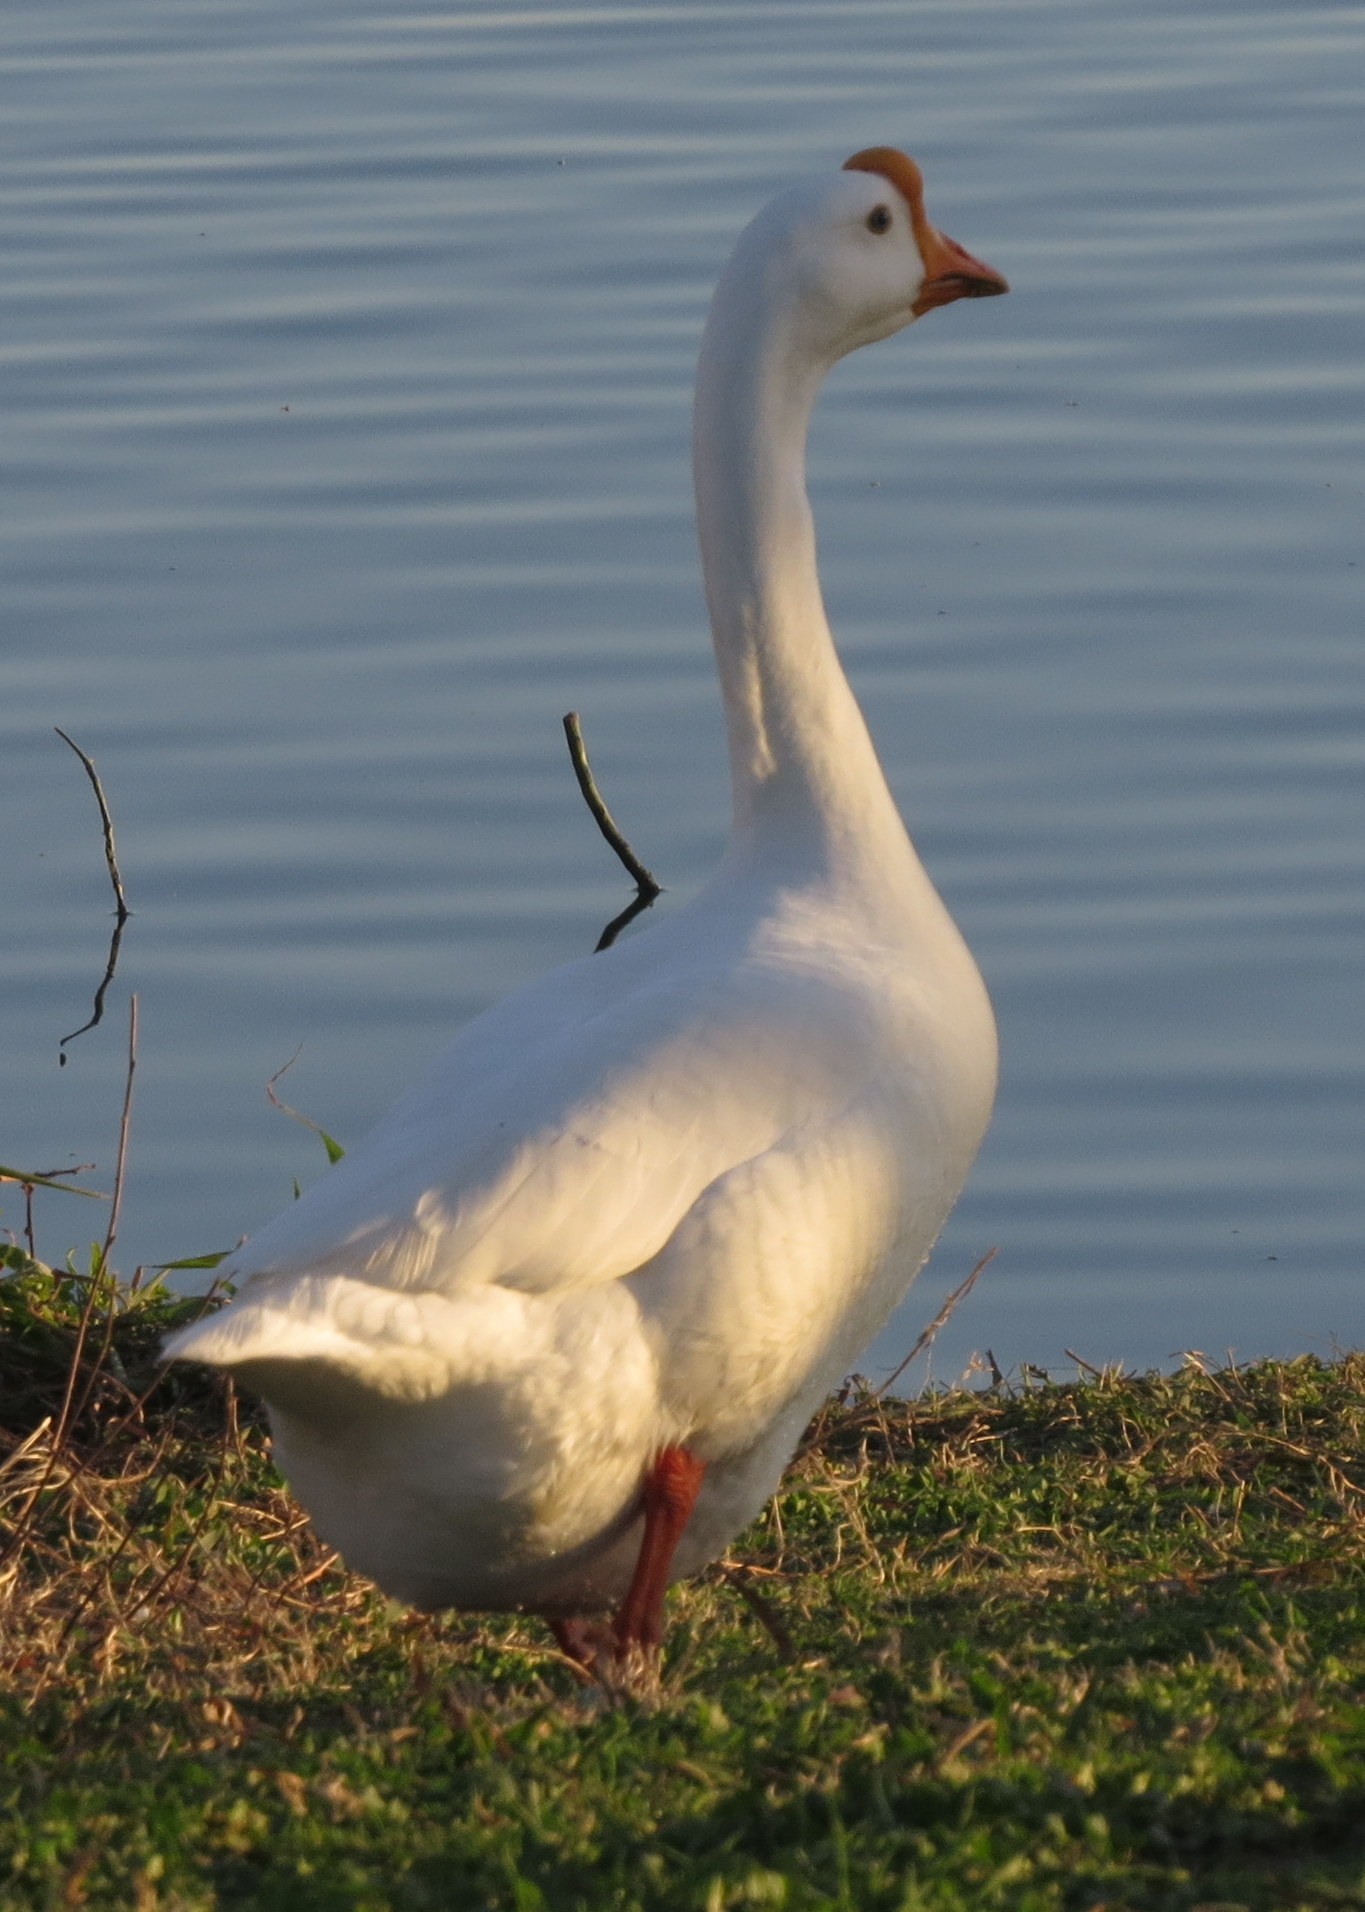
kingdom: Animalia
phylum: Chordata
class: Aves
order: Anseriformes
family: Anatidae
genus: Anser
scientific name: Anser cygnoides
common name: Swan goose
